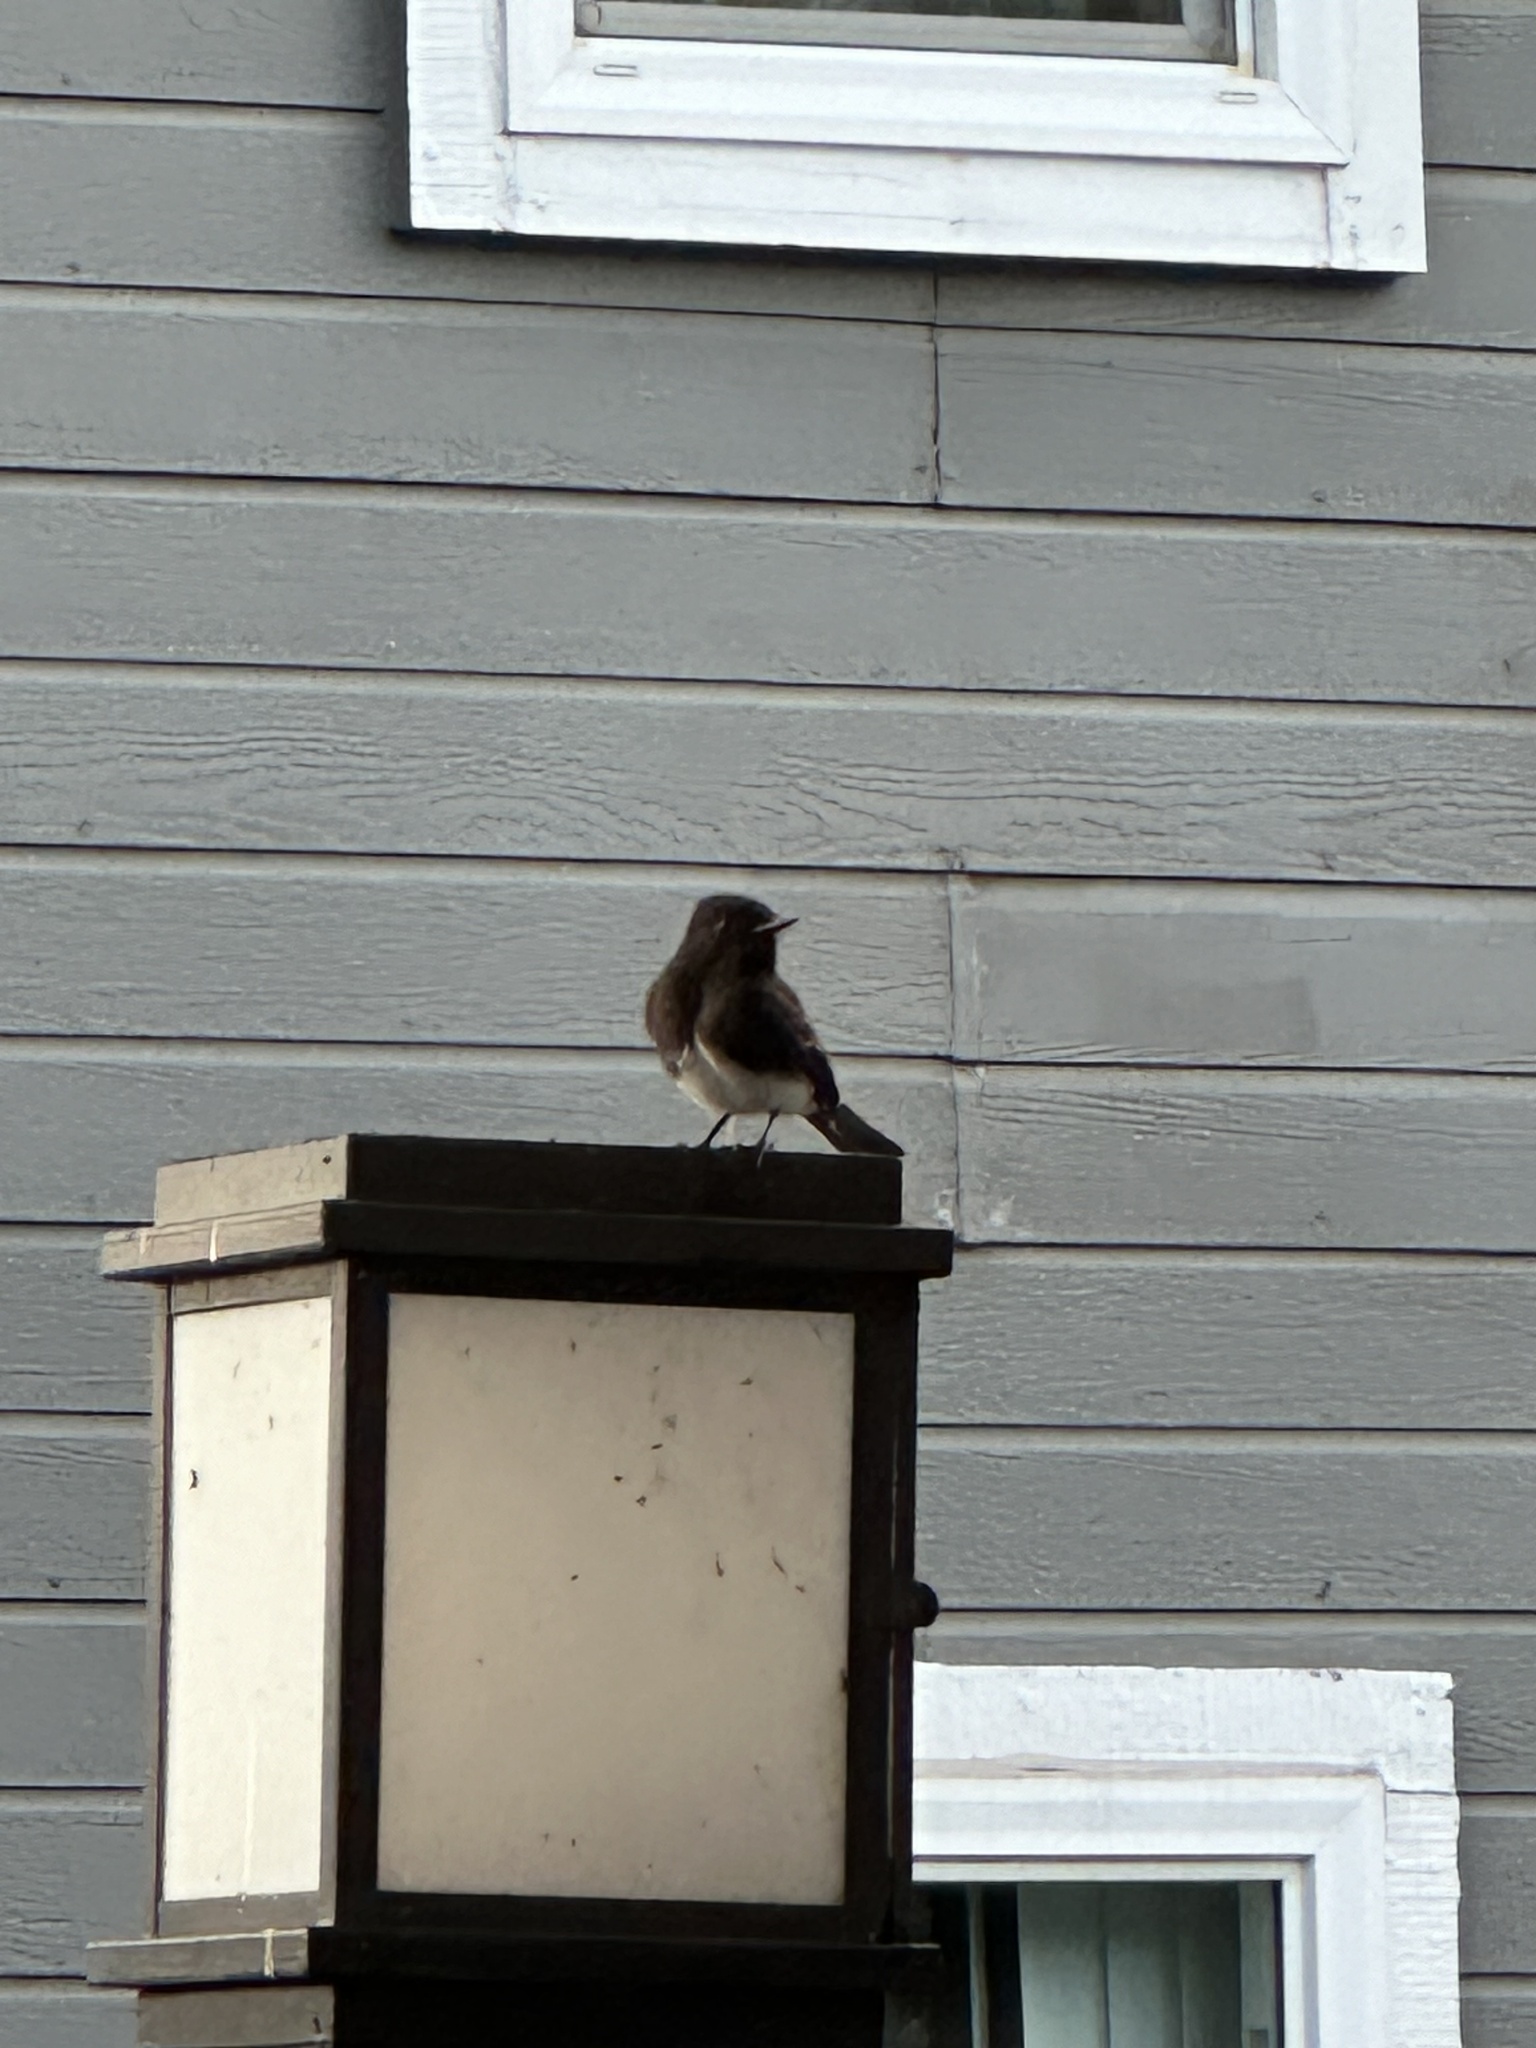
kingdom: Animalia
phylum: Chordata
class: Aves
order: Passeriformes
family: Tyrannidae
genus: Sayornis
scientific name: Sayornis nigricans
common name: Black phoebe
